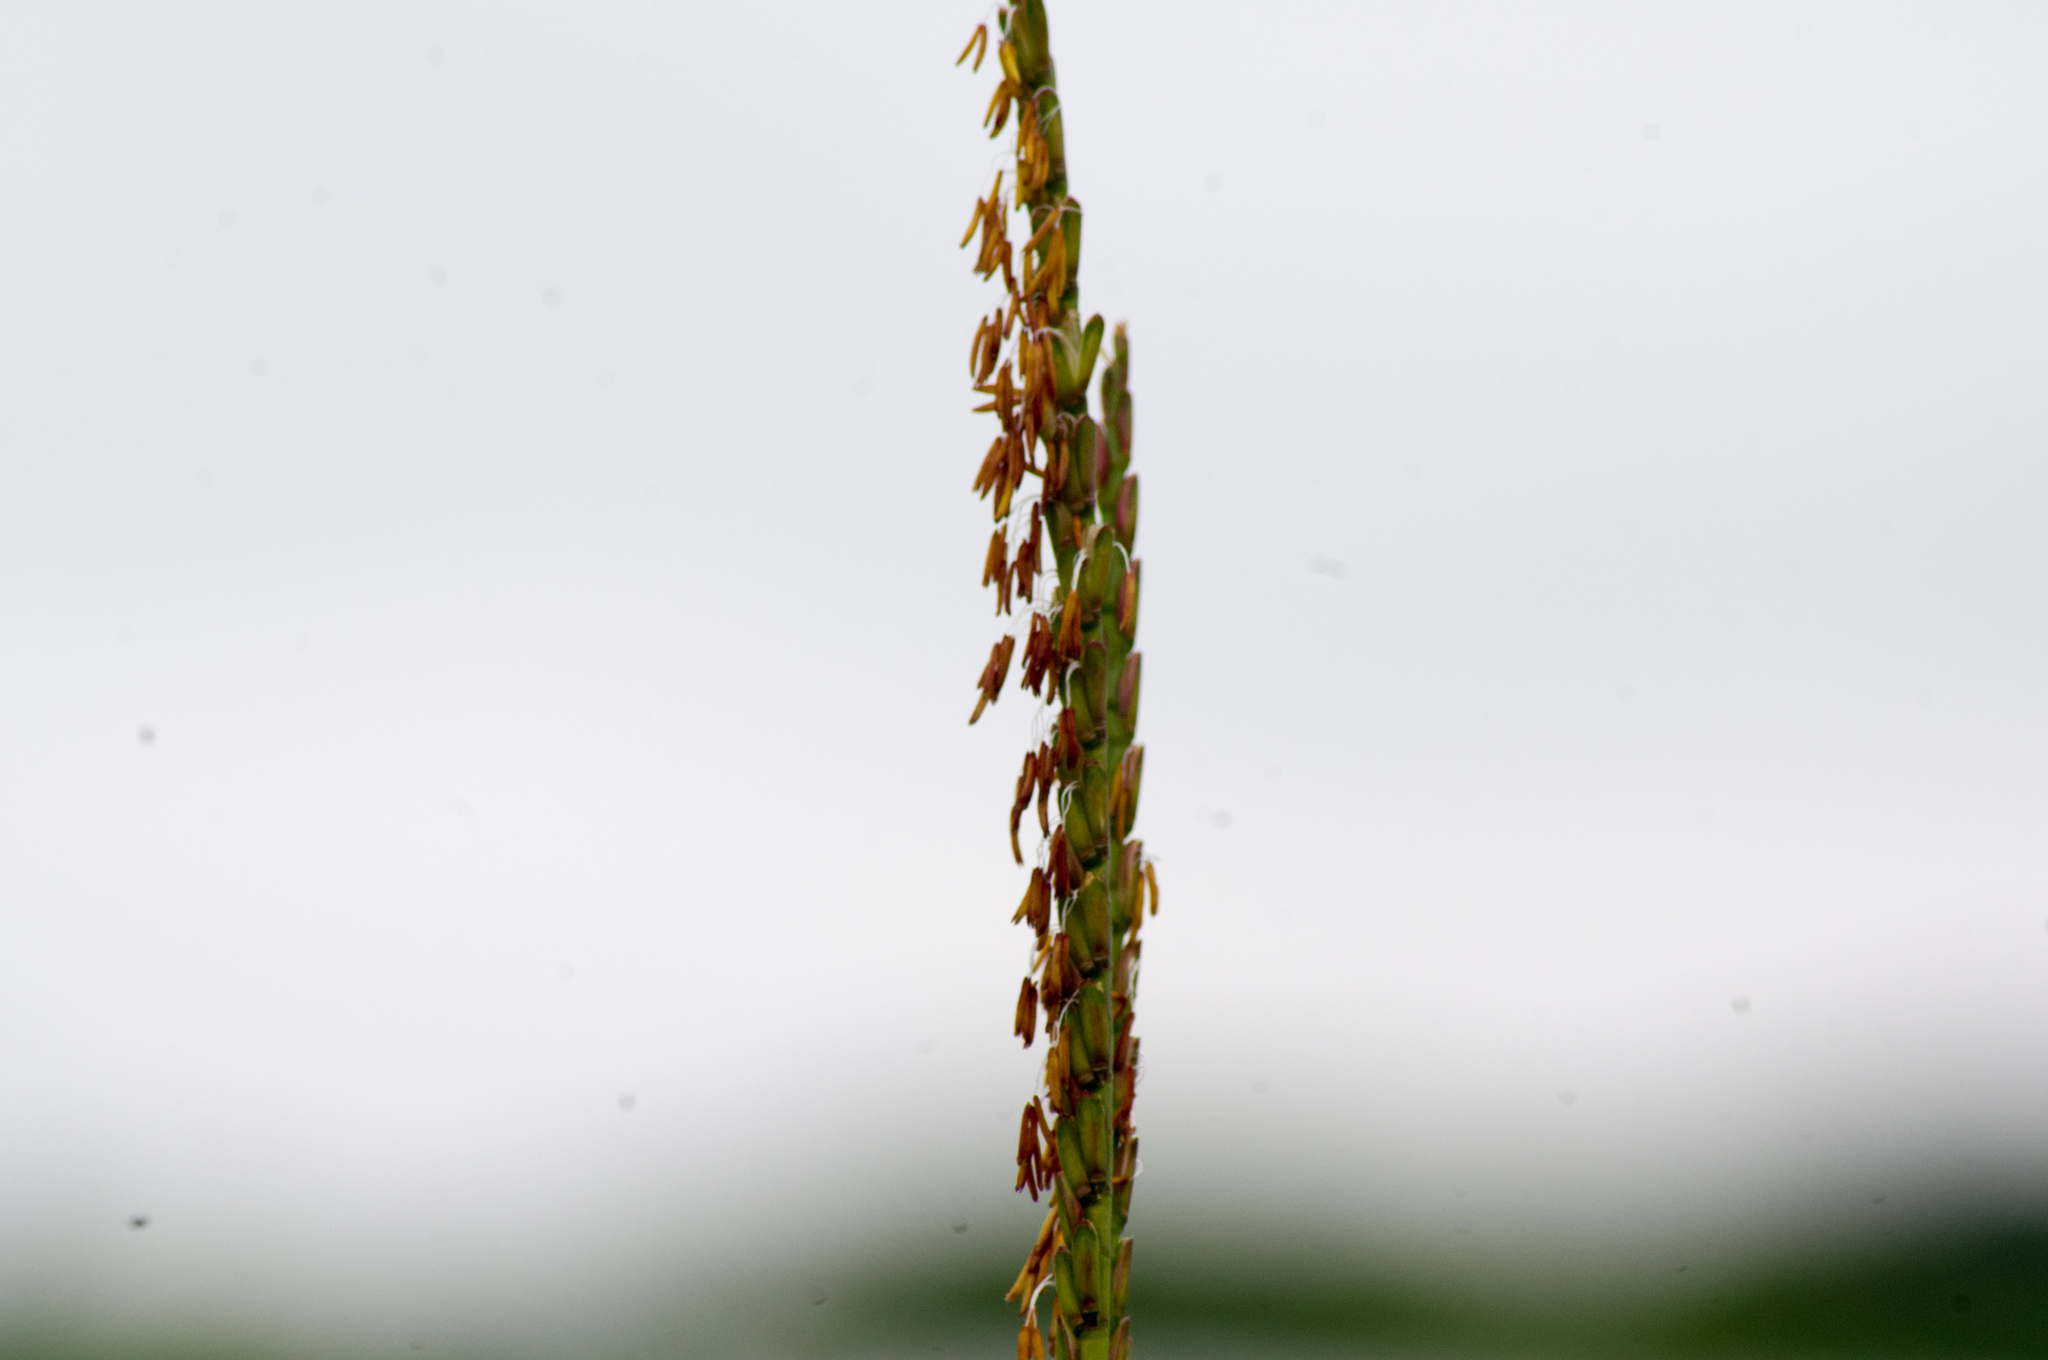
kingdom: Plantae
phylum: Tracheophyta
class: Liliopsida
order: Poales
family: Poaceae
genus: Tripsacum
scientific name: Tripsacum dactyloides
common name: Buffalo-grass
